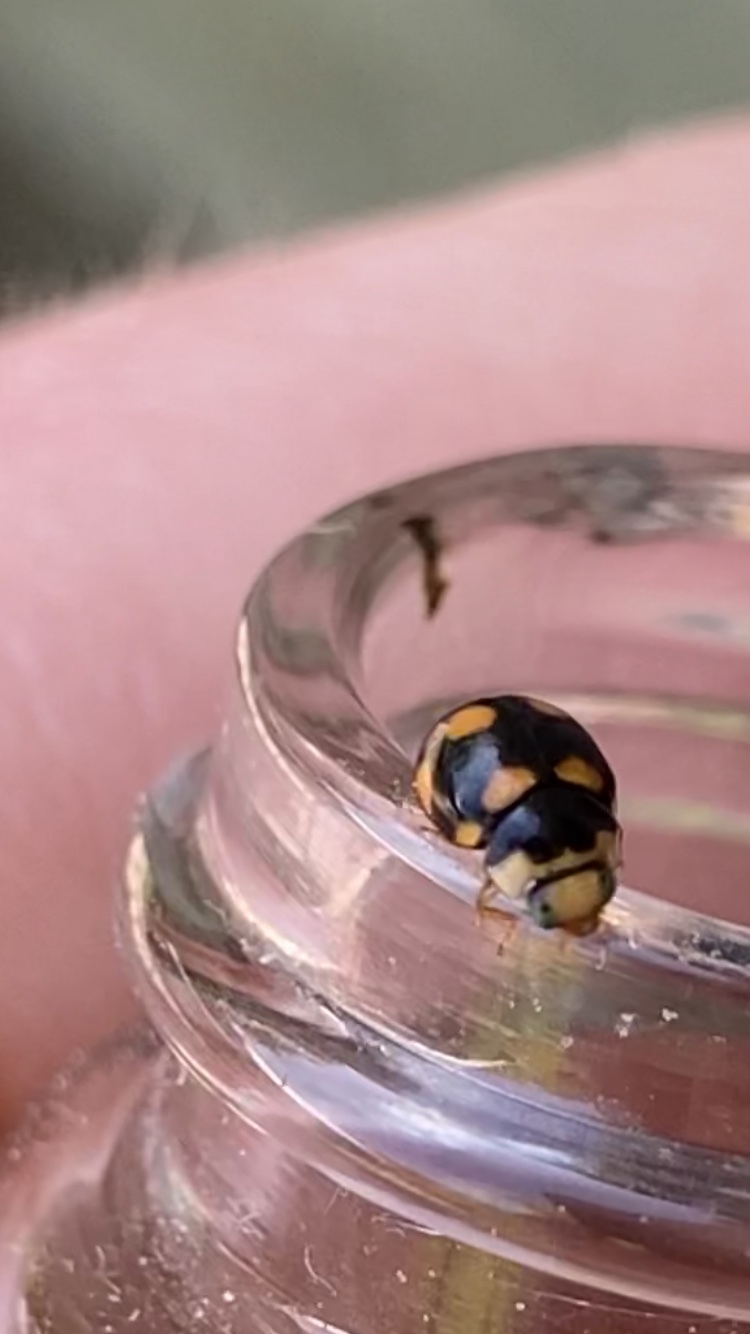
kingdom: Animalia
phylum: Arthropoda
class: Insecta
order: Coleoptera
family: Coccinellidae
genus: Brachiacantha
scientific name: Brachiacantha ursina
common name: Ursine spurleg lady beetle
